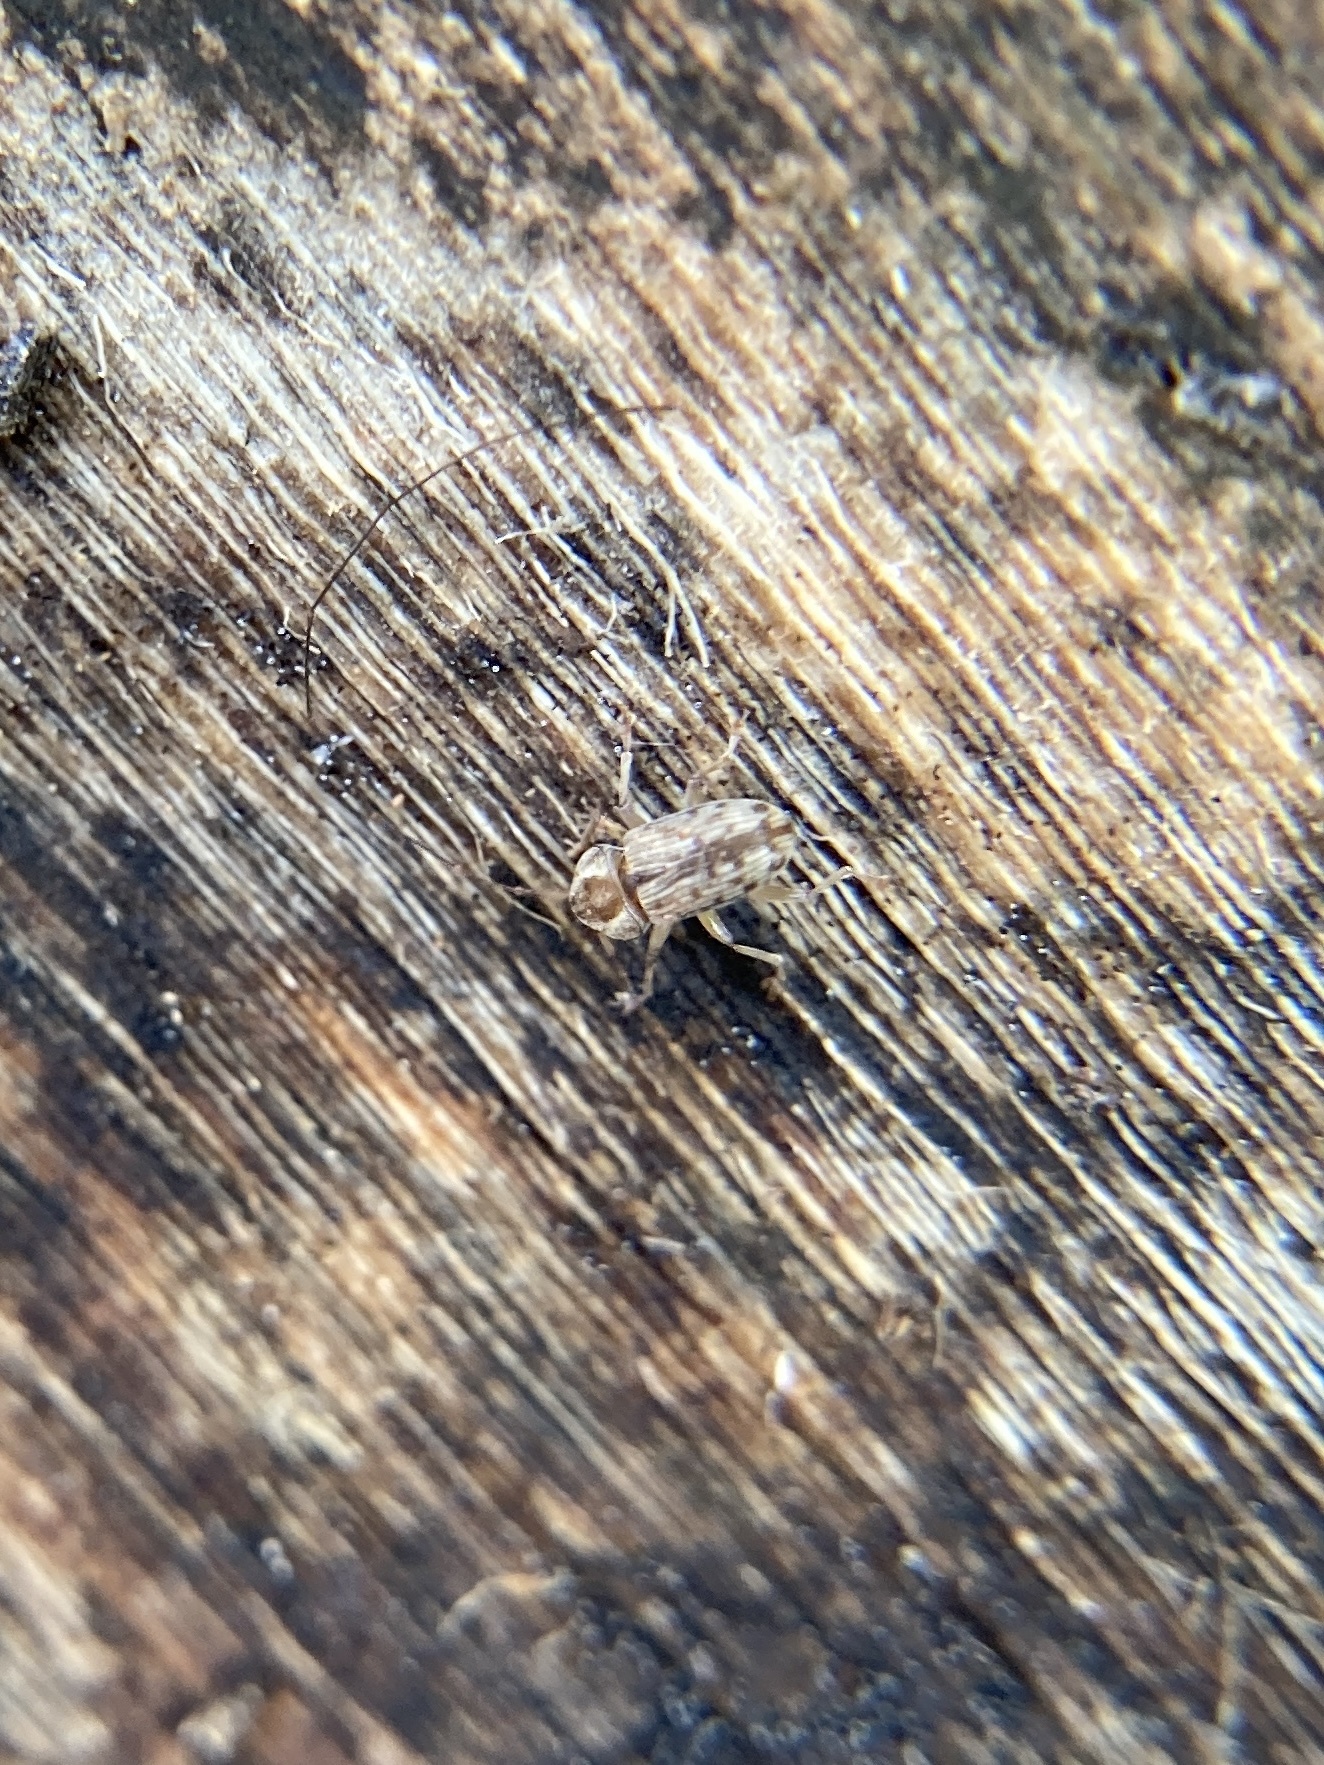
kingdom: Animalia
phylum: Arthropoda
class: Insecta
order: Coleoptera
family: Anthribidae
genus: Dinema
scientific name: Dinema filicornis
